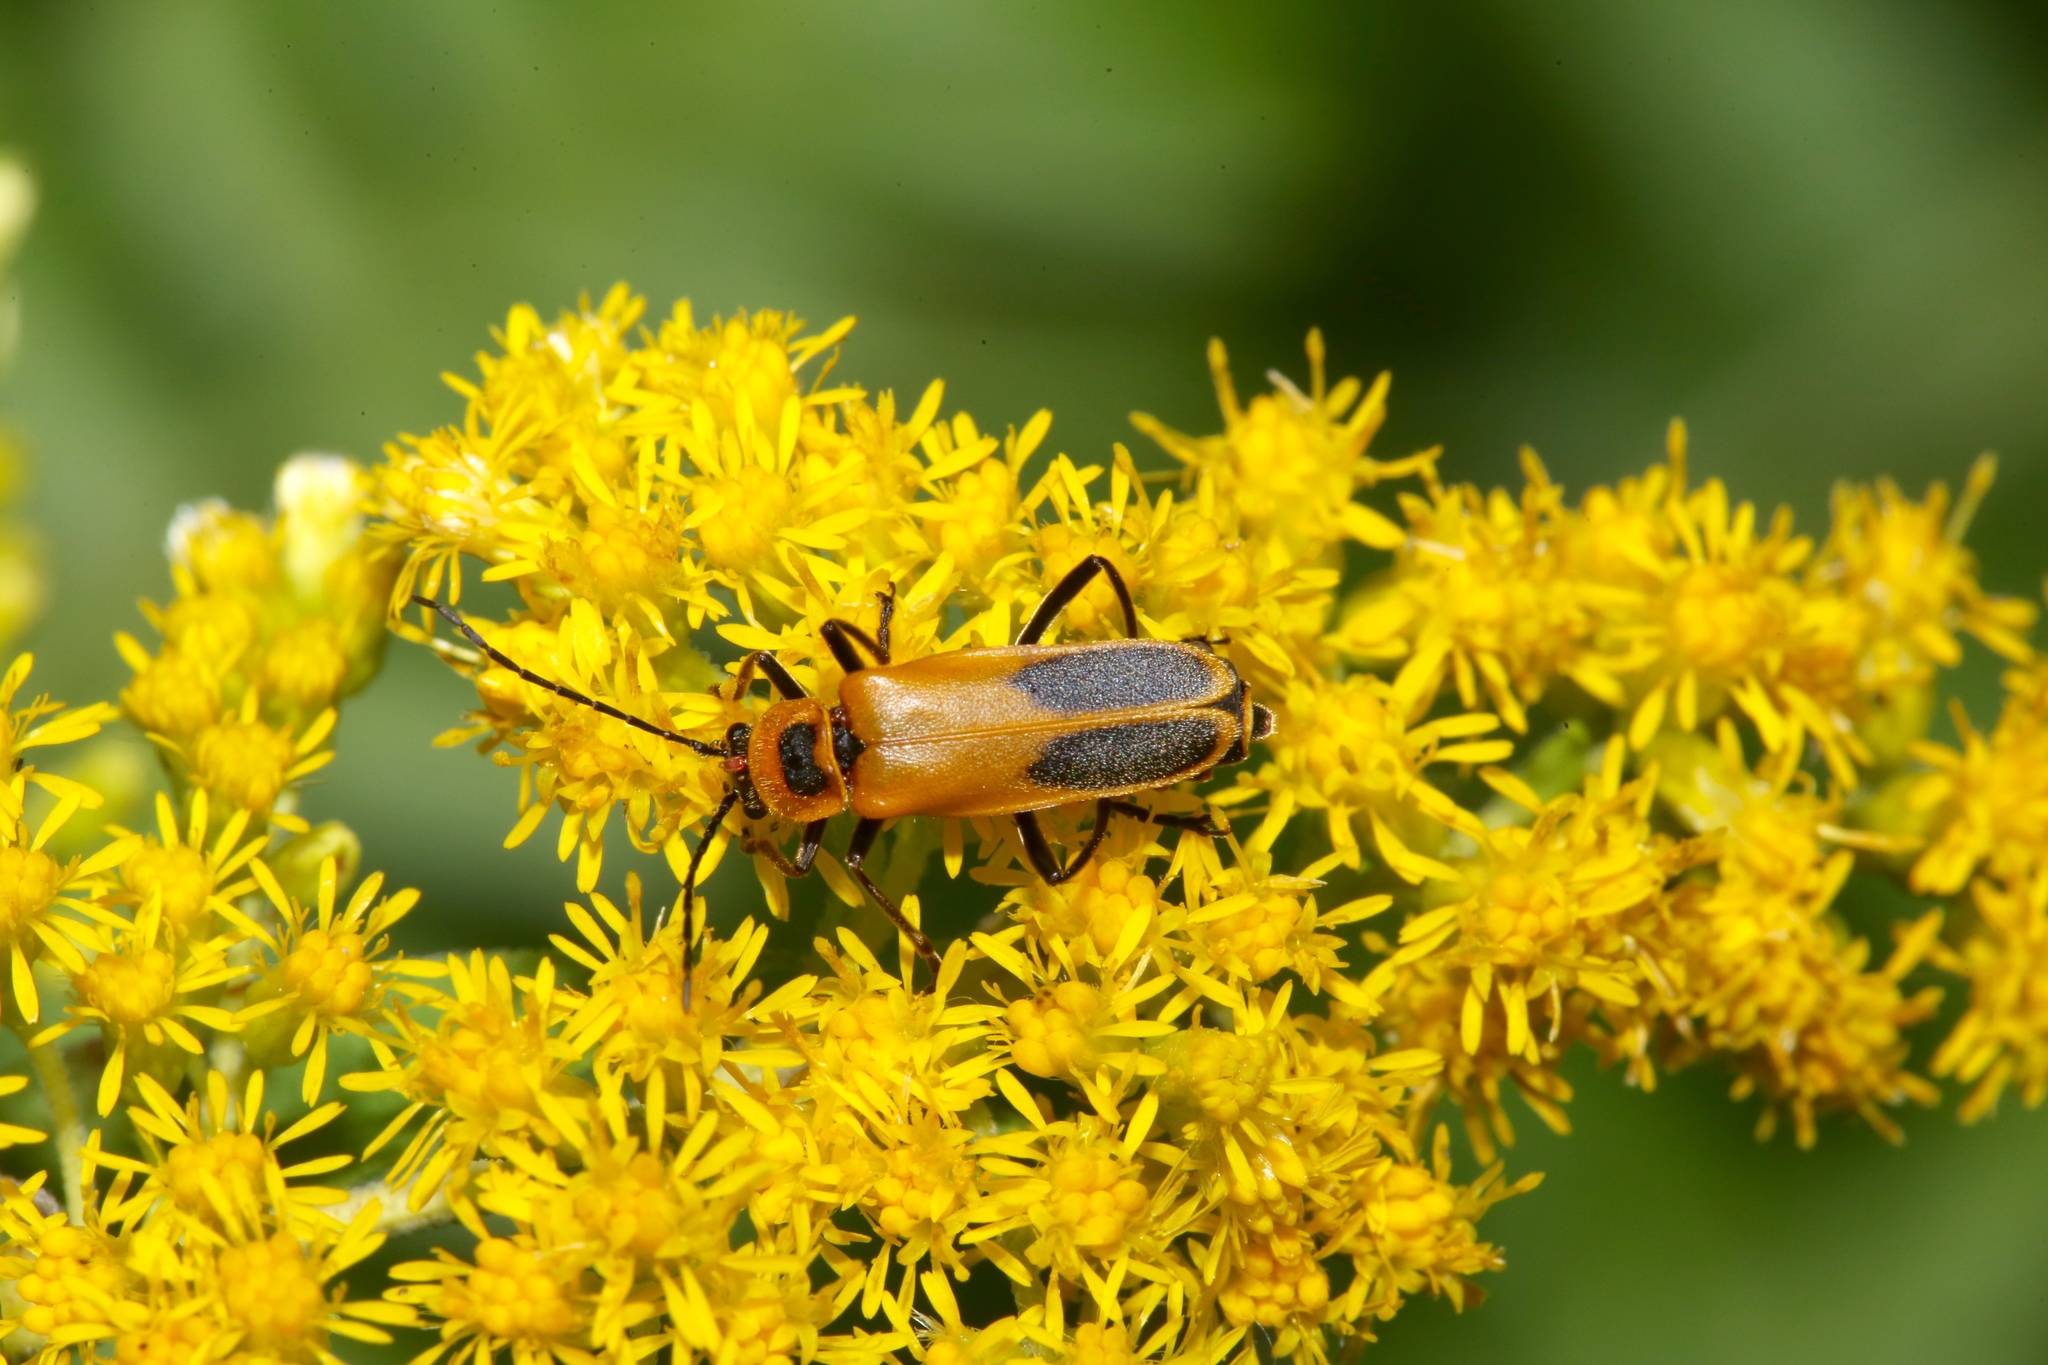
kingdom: Animalia
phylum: Arthropoda
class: Insecta
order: Coleoptera
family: Cantharidae
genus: Chauliognathus
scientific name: Chauliognathus pensylvanicus
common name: Goldenrod soldier beetle
